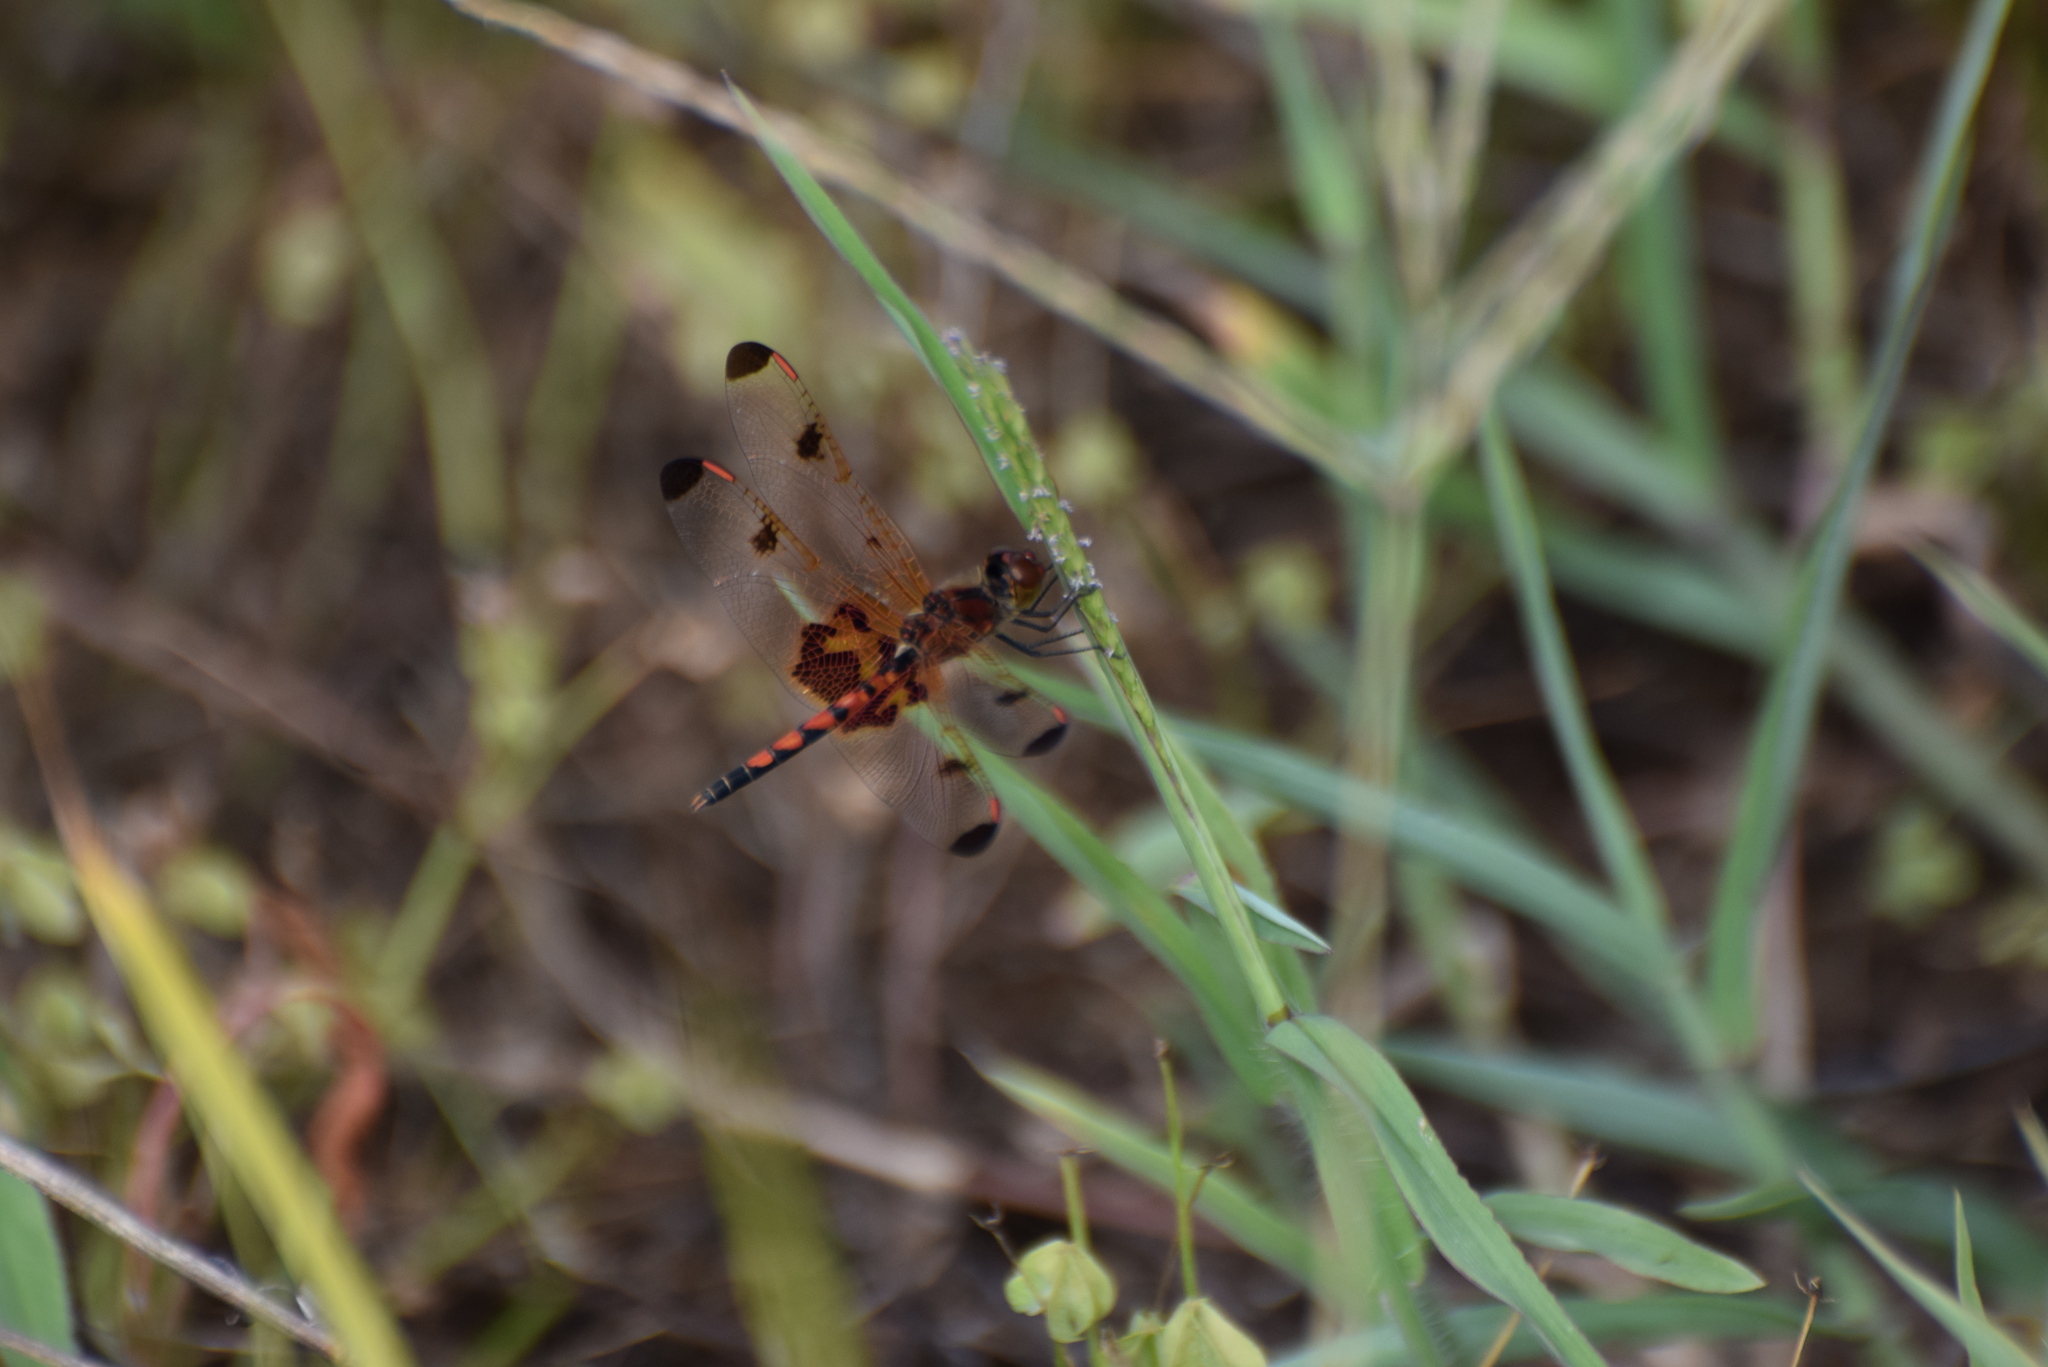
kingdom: Animalia
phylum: Arthropoda
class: Insecta
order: Odonata
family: Libellulidae
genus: Celithemis
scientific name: Celithemis elisa
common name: Calico pennant
